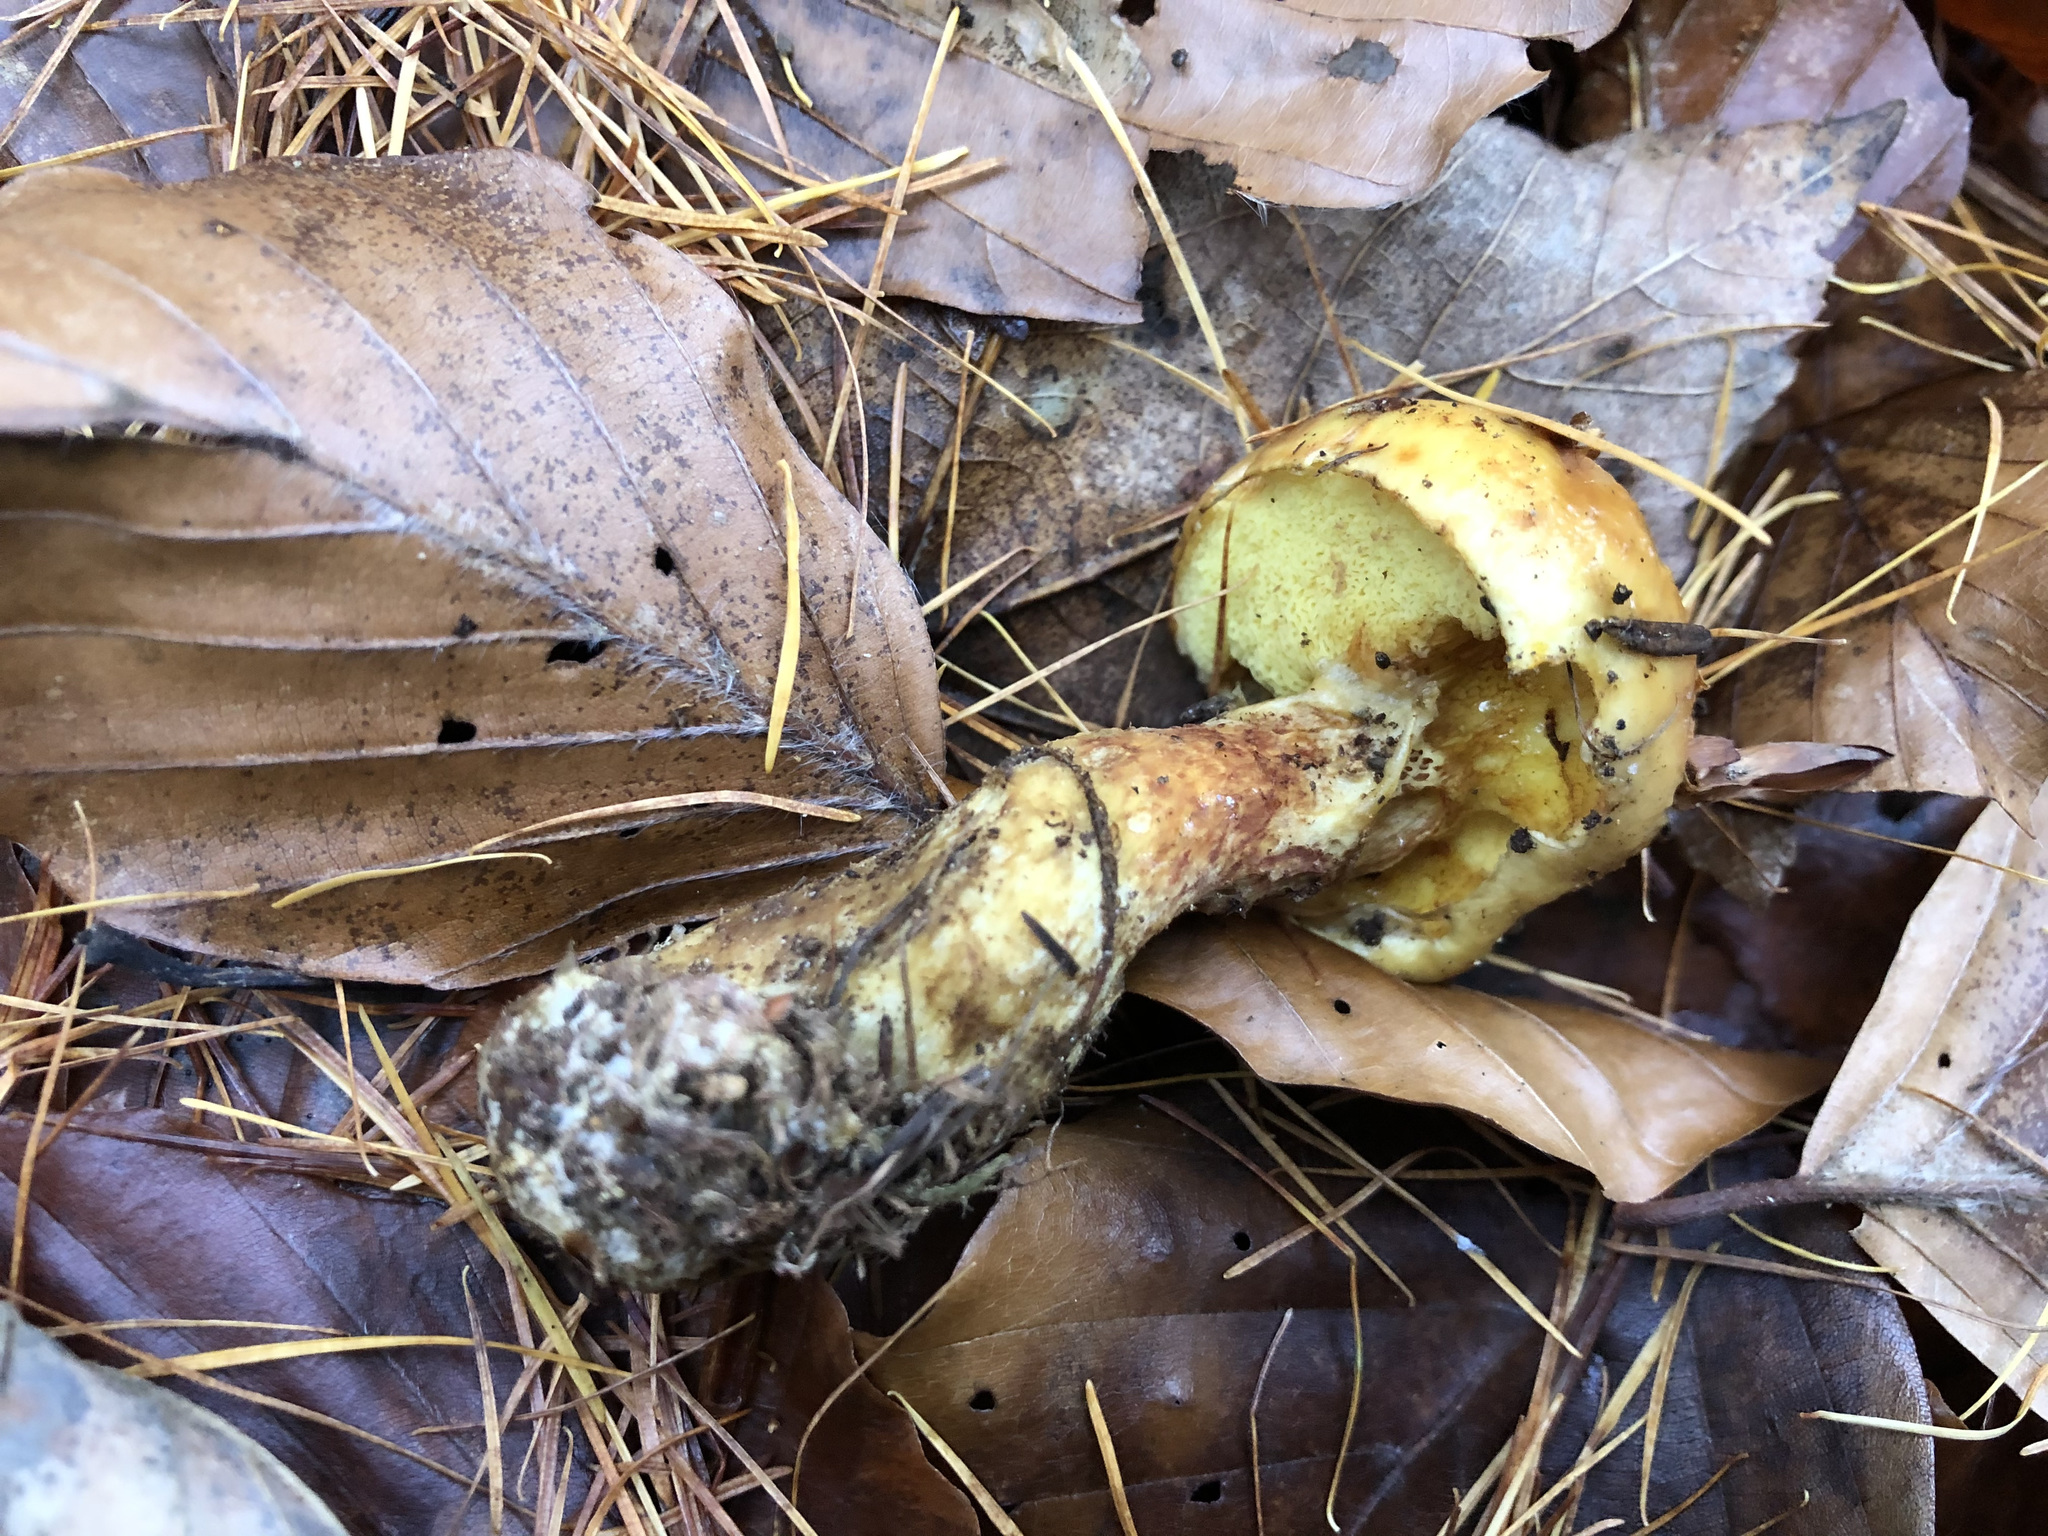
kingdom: Fungi
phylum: Basidiomycota
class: Agaricomycetes
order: Boletales
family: Suillaceae
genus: Suillus
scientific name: Suillus grevillei
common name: Larch bolete
